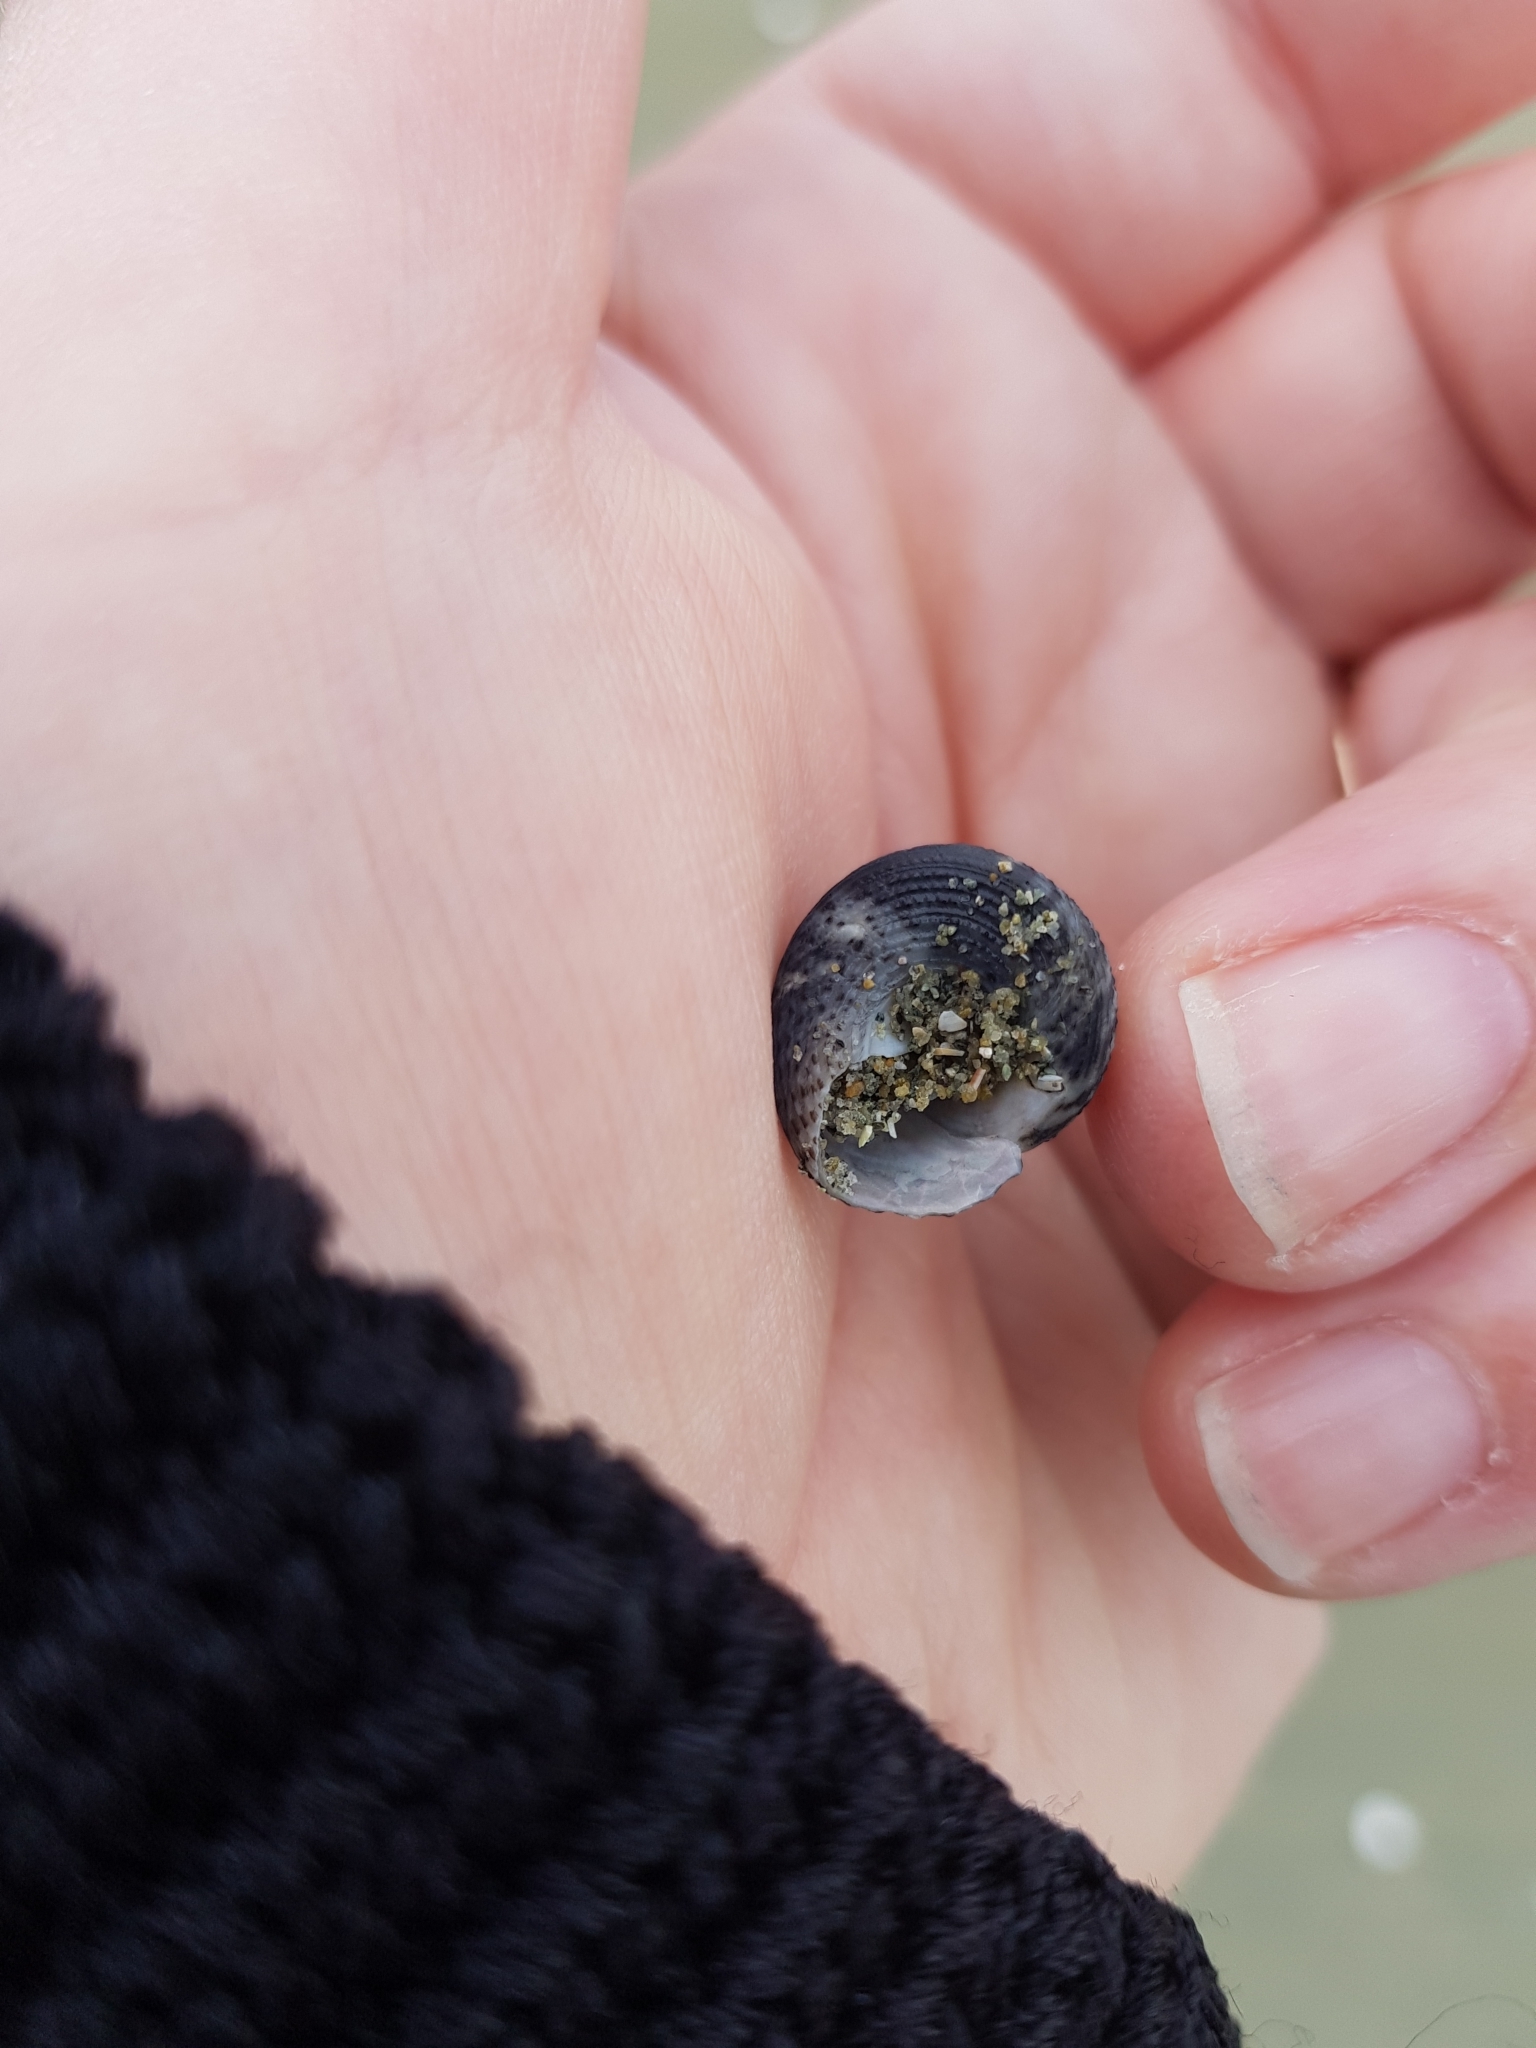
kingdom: Animalia
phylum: Mollusca
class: Gastropoda
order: Trochida
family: Trochidae
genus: Coelotrochus
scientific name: Coelotrochus tiaratus
